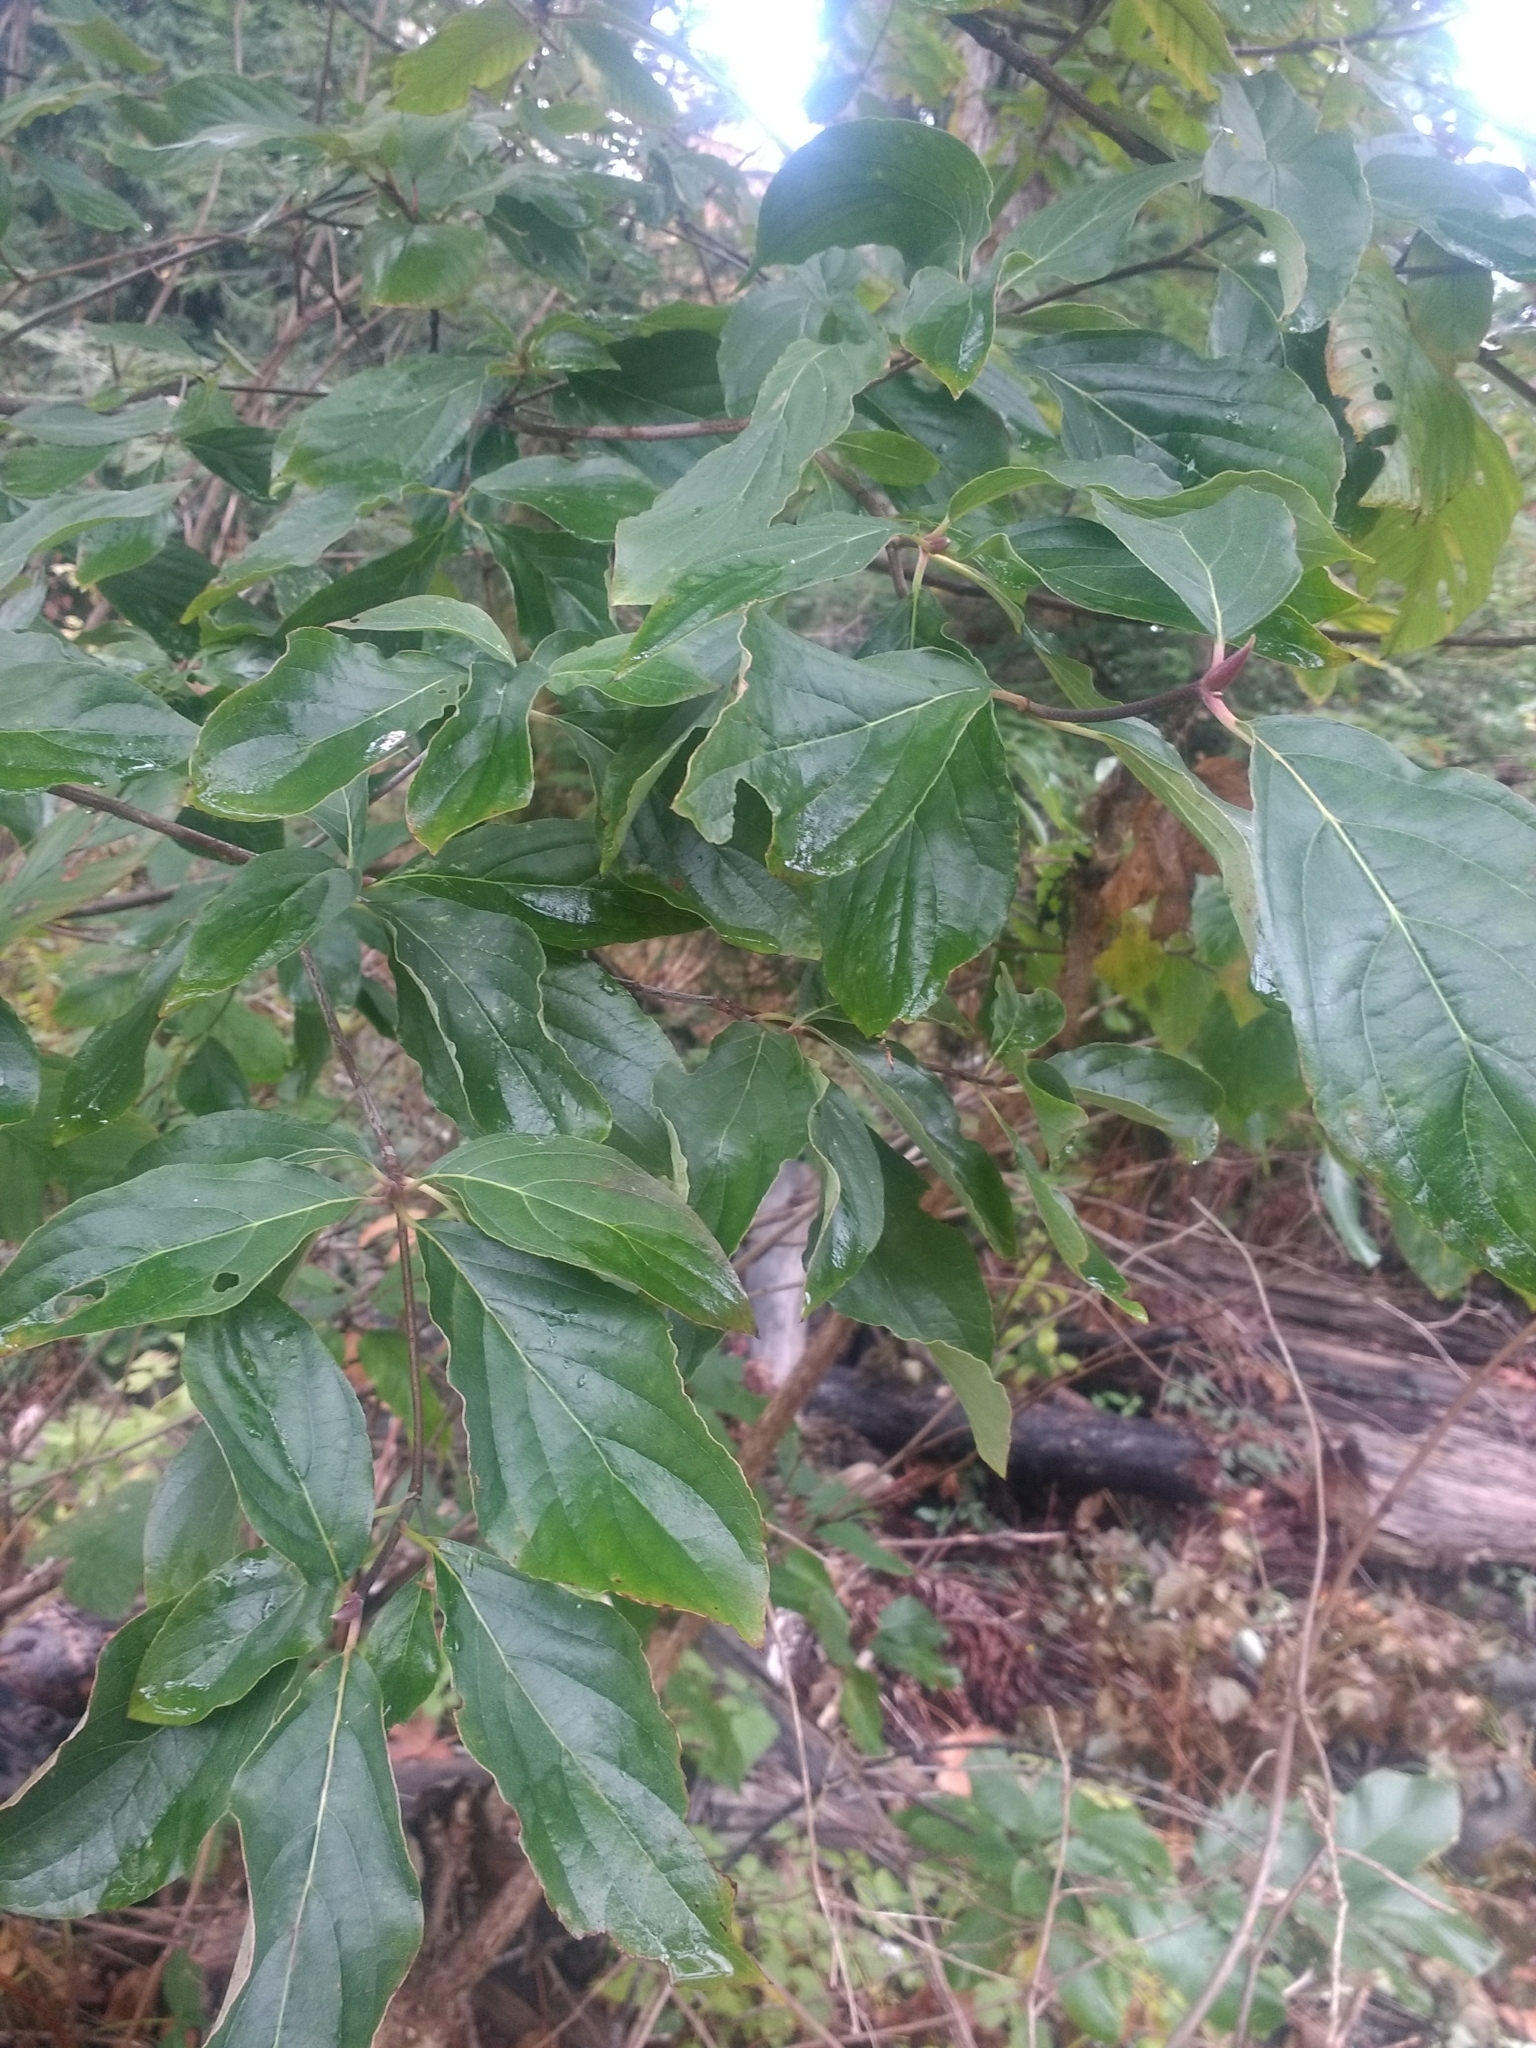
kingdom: Plantae
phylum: Tracheophyta
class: Magnoliopsida
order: Cornales
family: Cornaceae
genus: Cornus
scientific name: Cornus nuttallii
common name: Pacific dogwood
